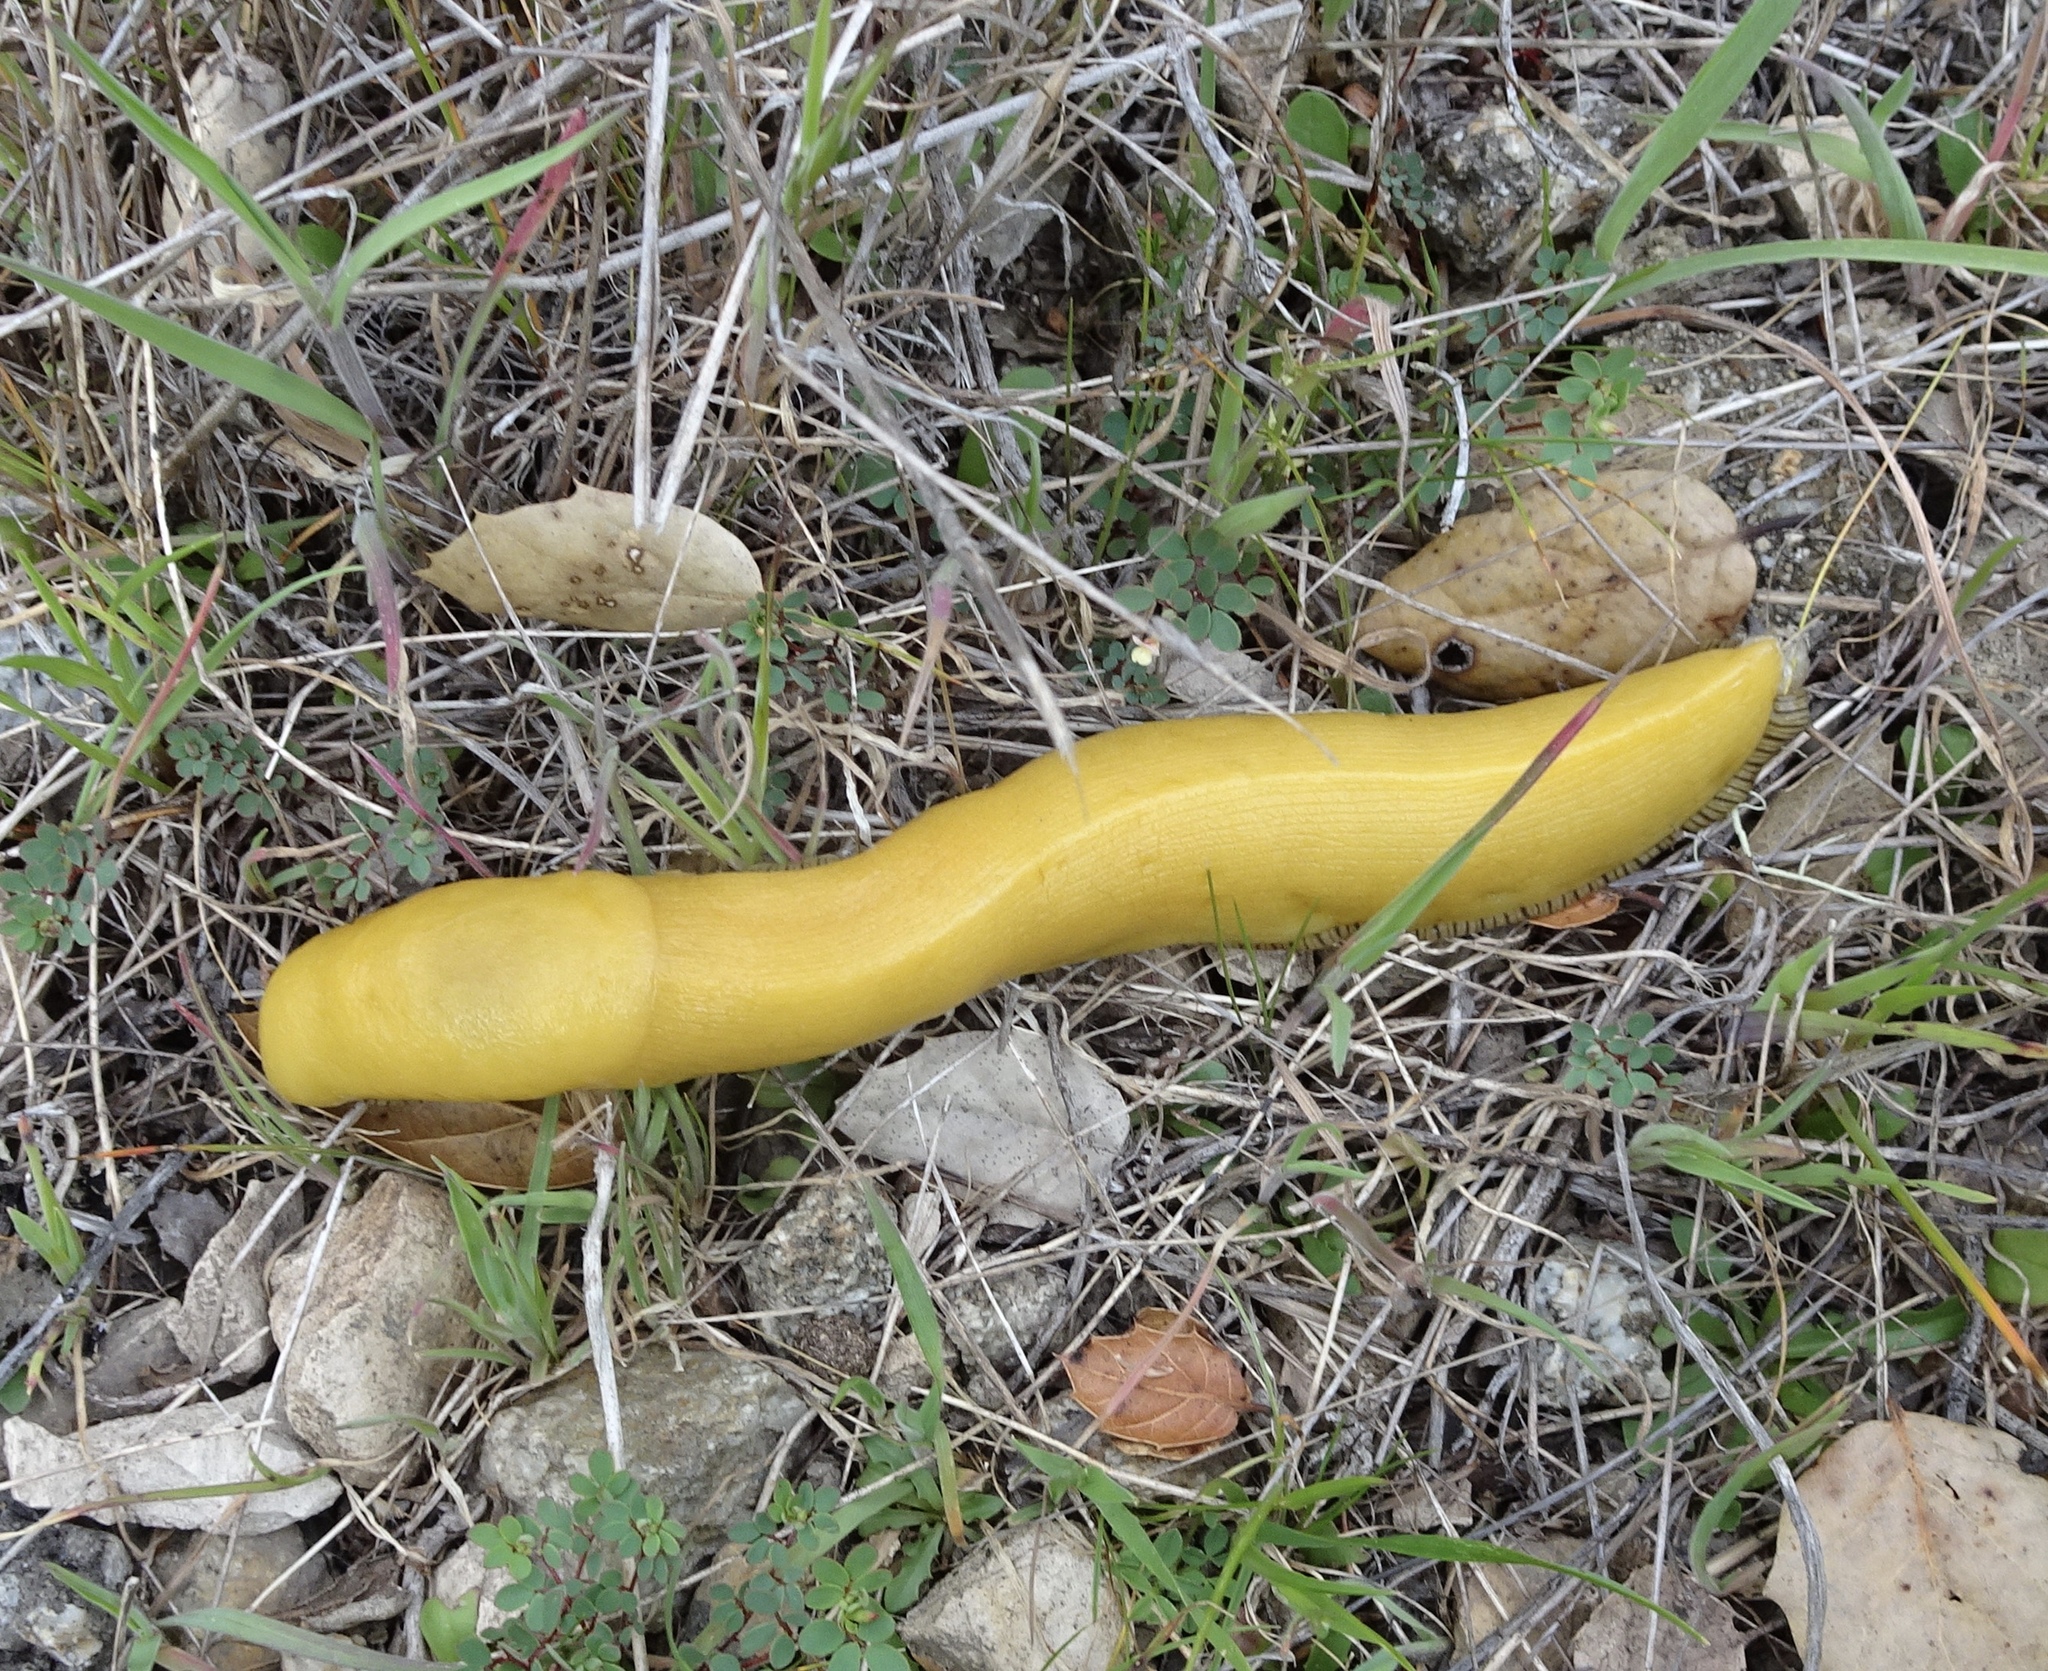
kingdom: Animalia
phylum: Mollusca
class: Gastropoda
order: Stylommatophora
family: Ariolimacidae
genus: Ariolimax
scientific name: Ariolimax dolichophallus
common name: Slender banana slug
